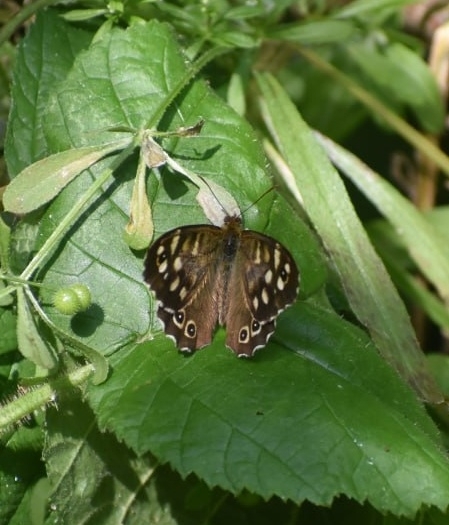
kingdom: Animalia
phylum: Arthropoda
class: Insecta
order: Lepidoptera
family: Nymphalidae
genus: Pararge
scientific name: Pararge aegeria
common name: Speckled wood
